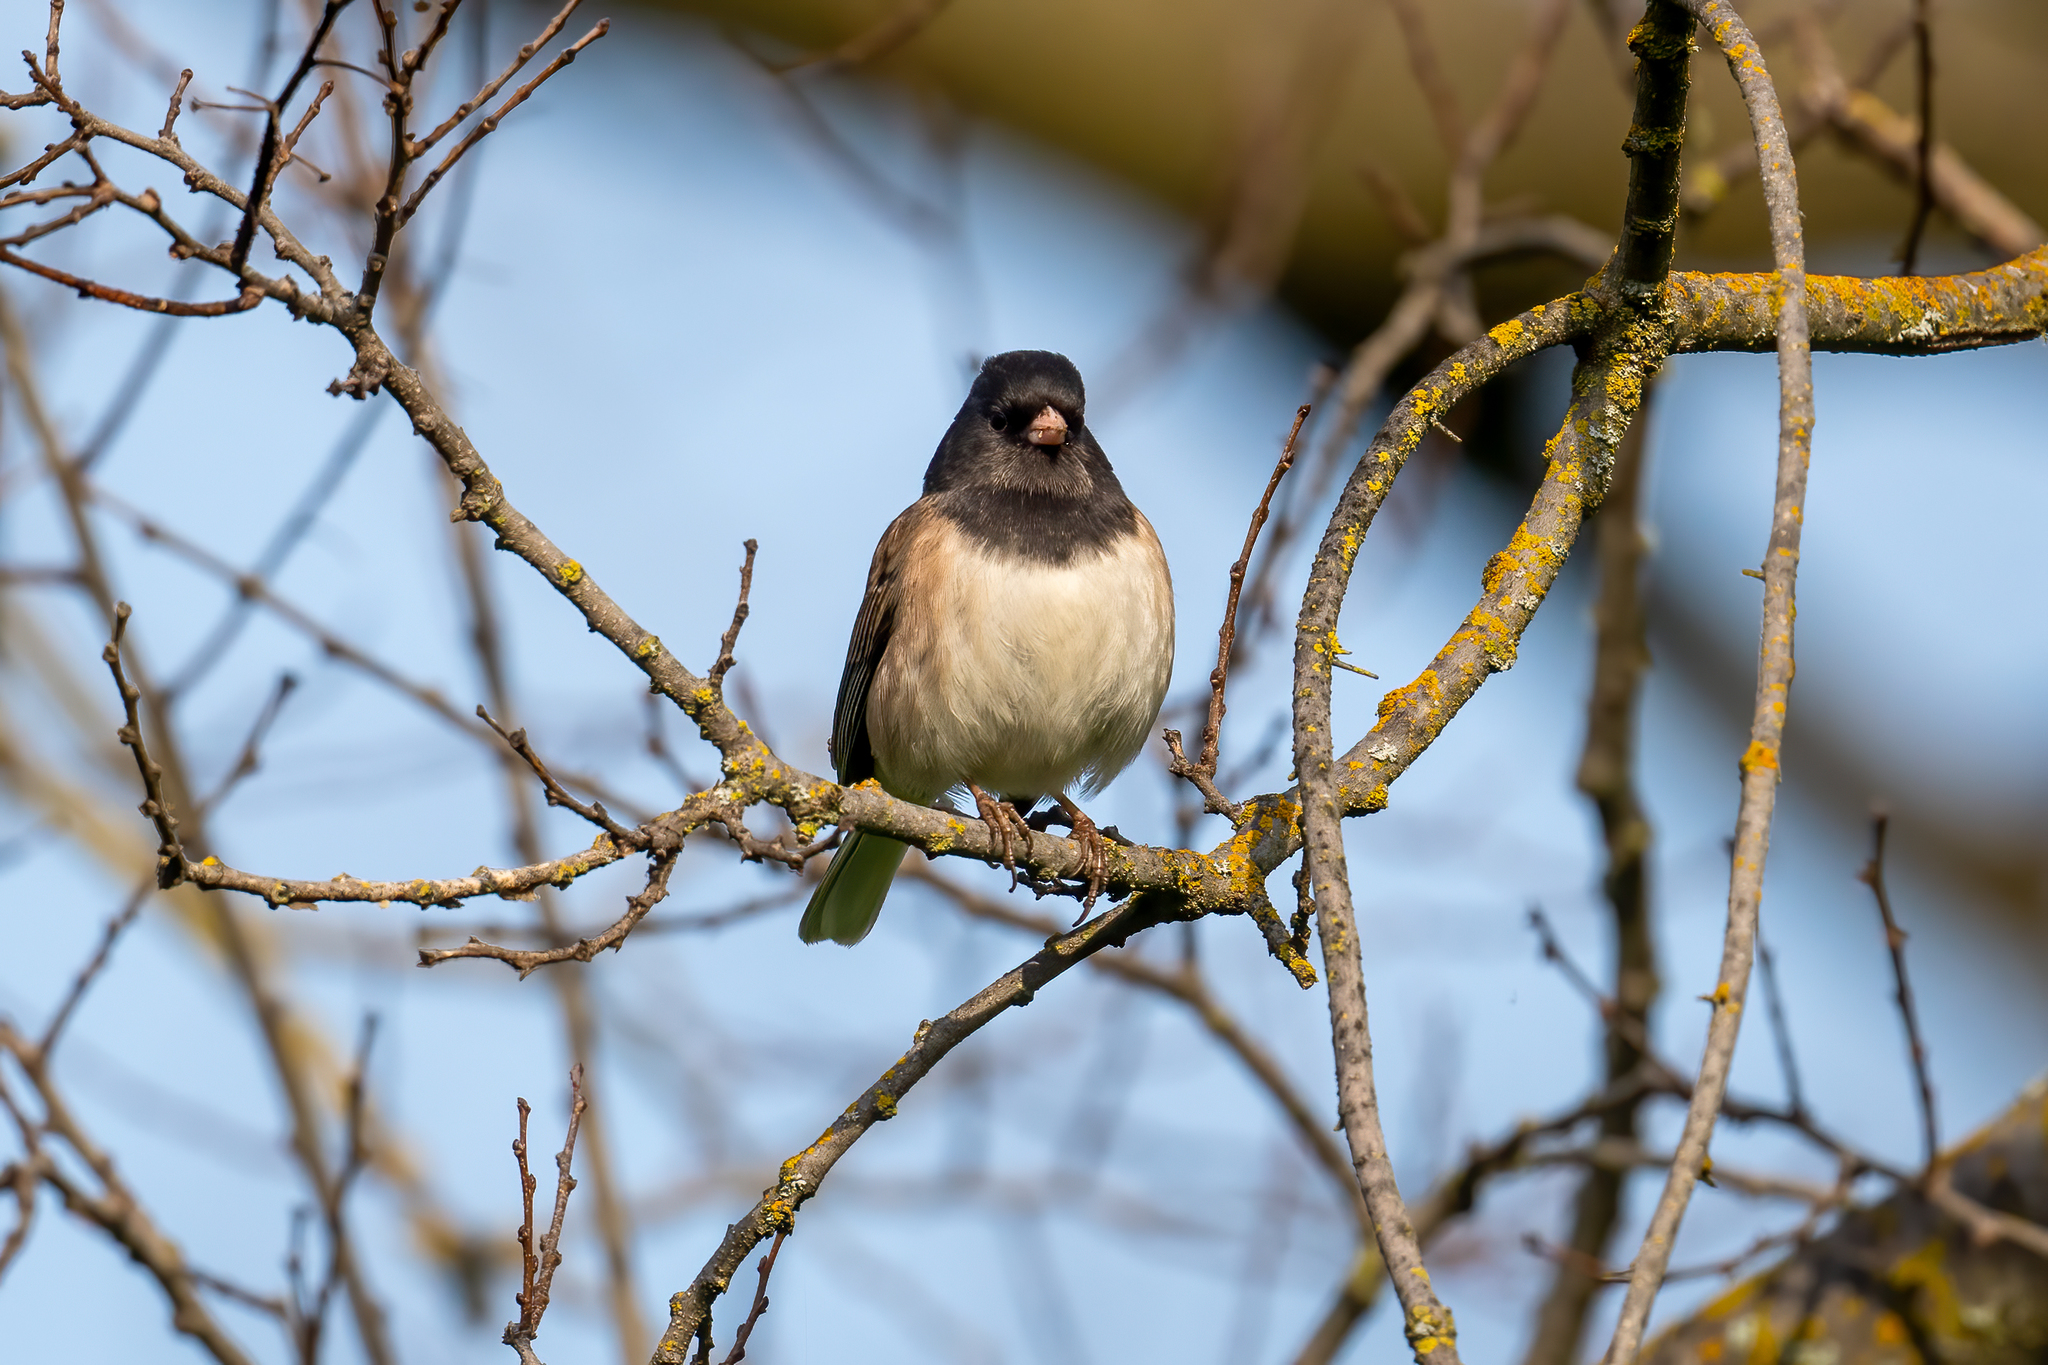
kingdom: Animalia
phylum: Chordata
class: Aves
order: Passeriformes
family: Passerellidae
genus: Junco
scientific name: Junco hyemalis
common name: Dark-eyed junco
